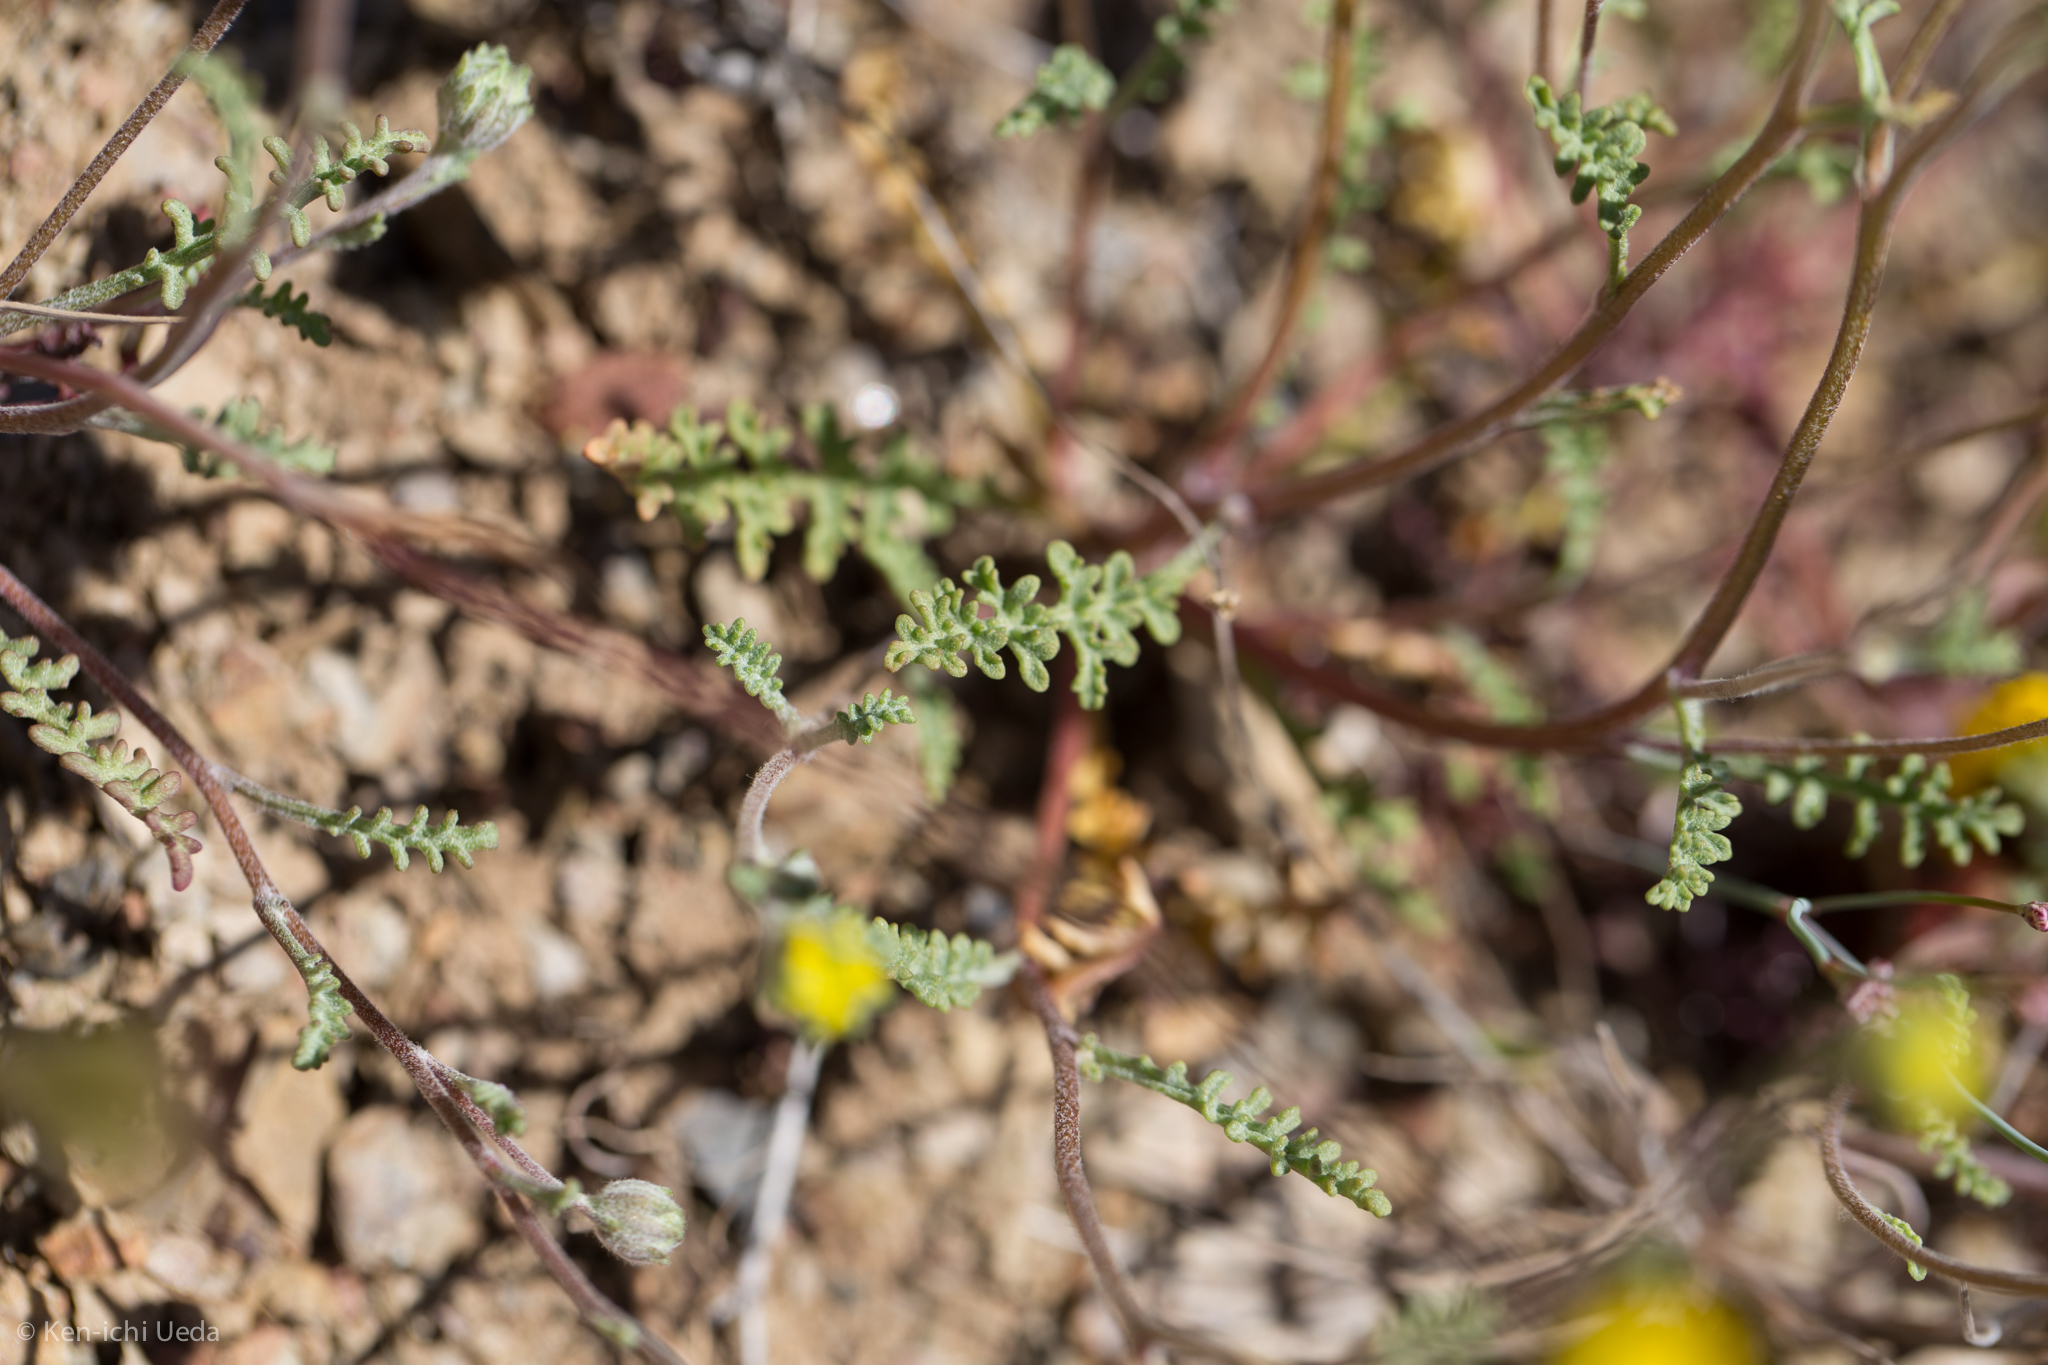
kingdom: Plantae
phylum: Tracheophyta
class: Magnoliopsida
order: Asterales
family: Asteraceae
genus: Chaenactis
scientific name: Chaenactis glabriuscula
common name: Yellow pincushion
